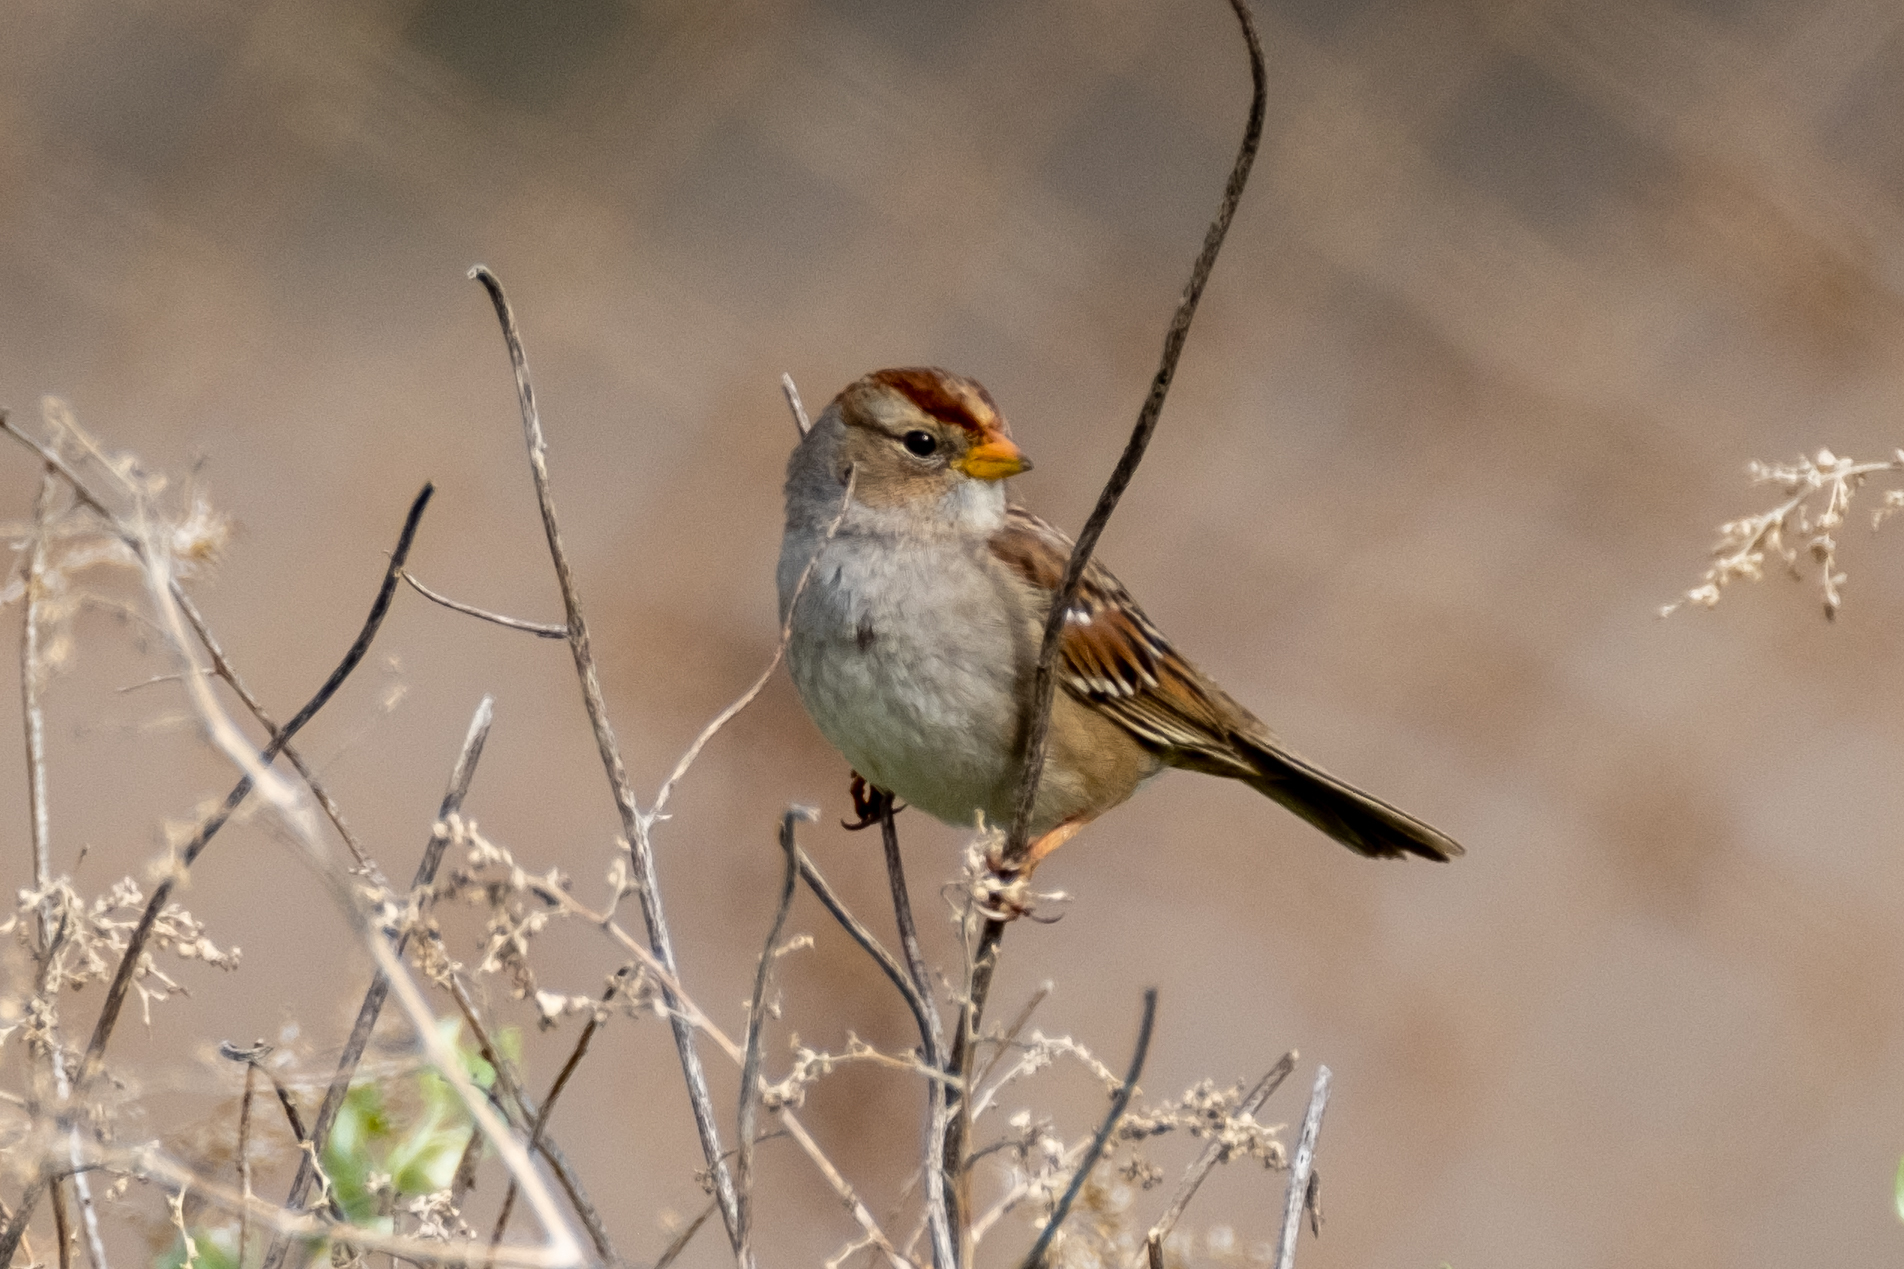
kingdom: Animalia
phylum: Chordata
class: Aves
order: Passeriformes
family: Passerellidae
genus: Zonotrichia
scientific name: Zonotrichia leucophrys
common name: White-crowned sparrow
